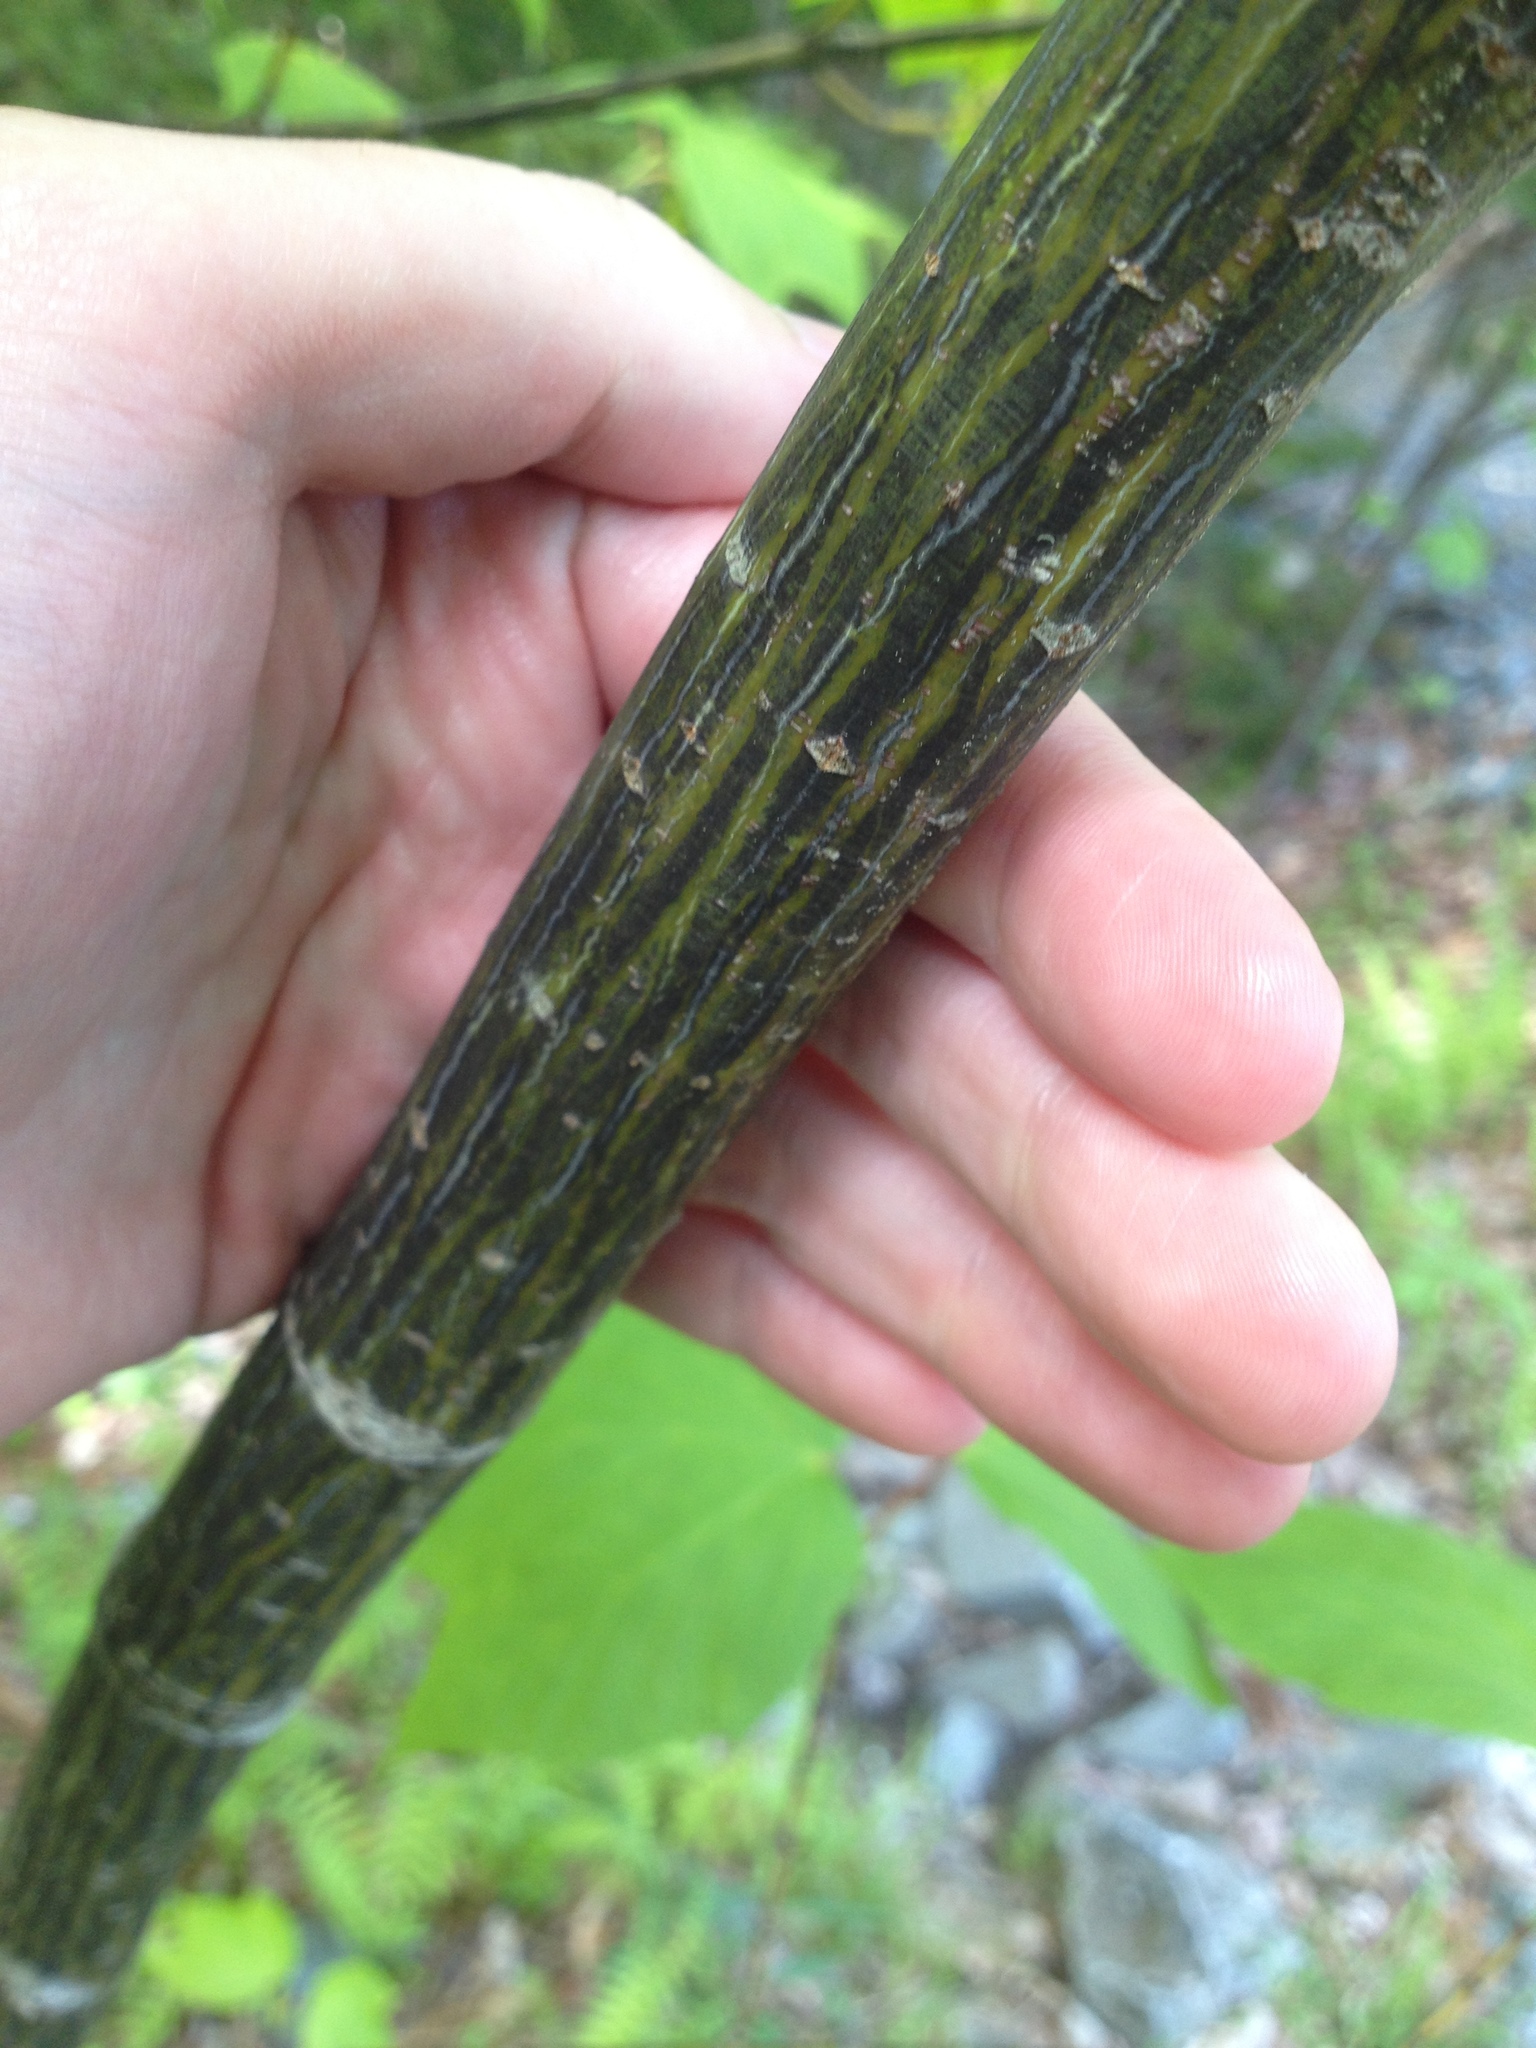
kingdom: Plantae
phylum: Tracheophyta
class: Magnoliopsida
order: Sapindales
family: Sapindaceae
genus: Acer
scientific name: Acer pensylvanicum
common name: Moosewood
